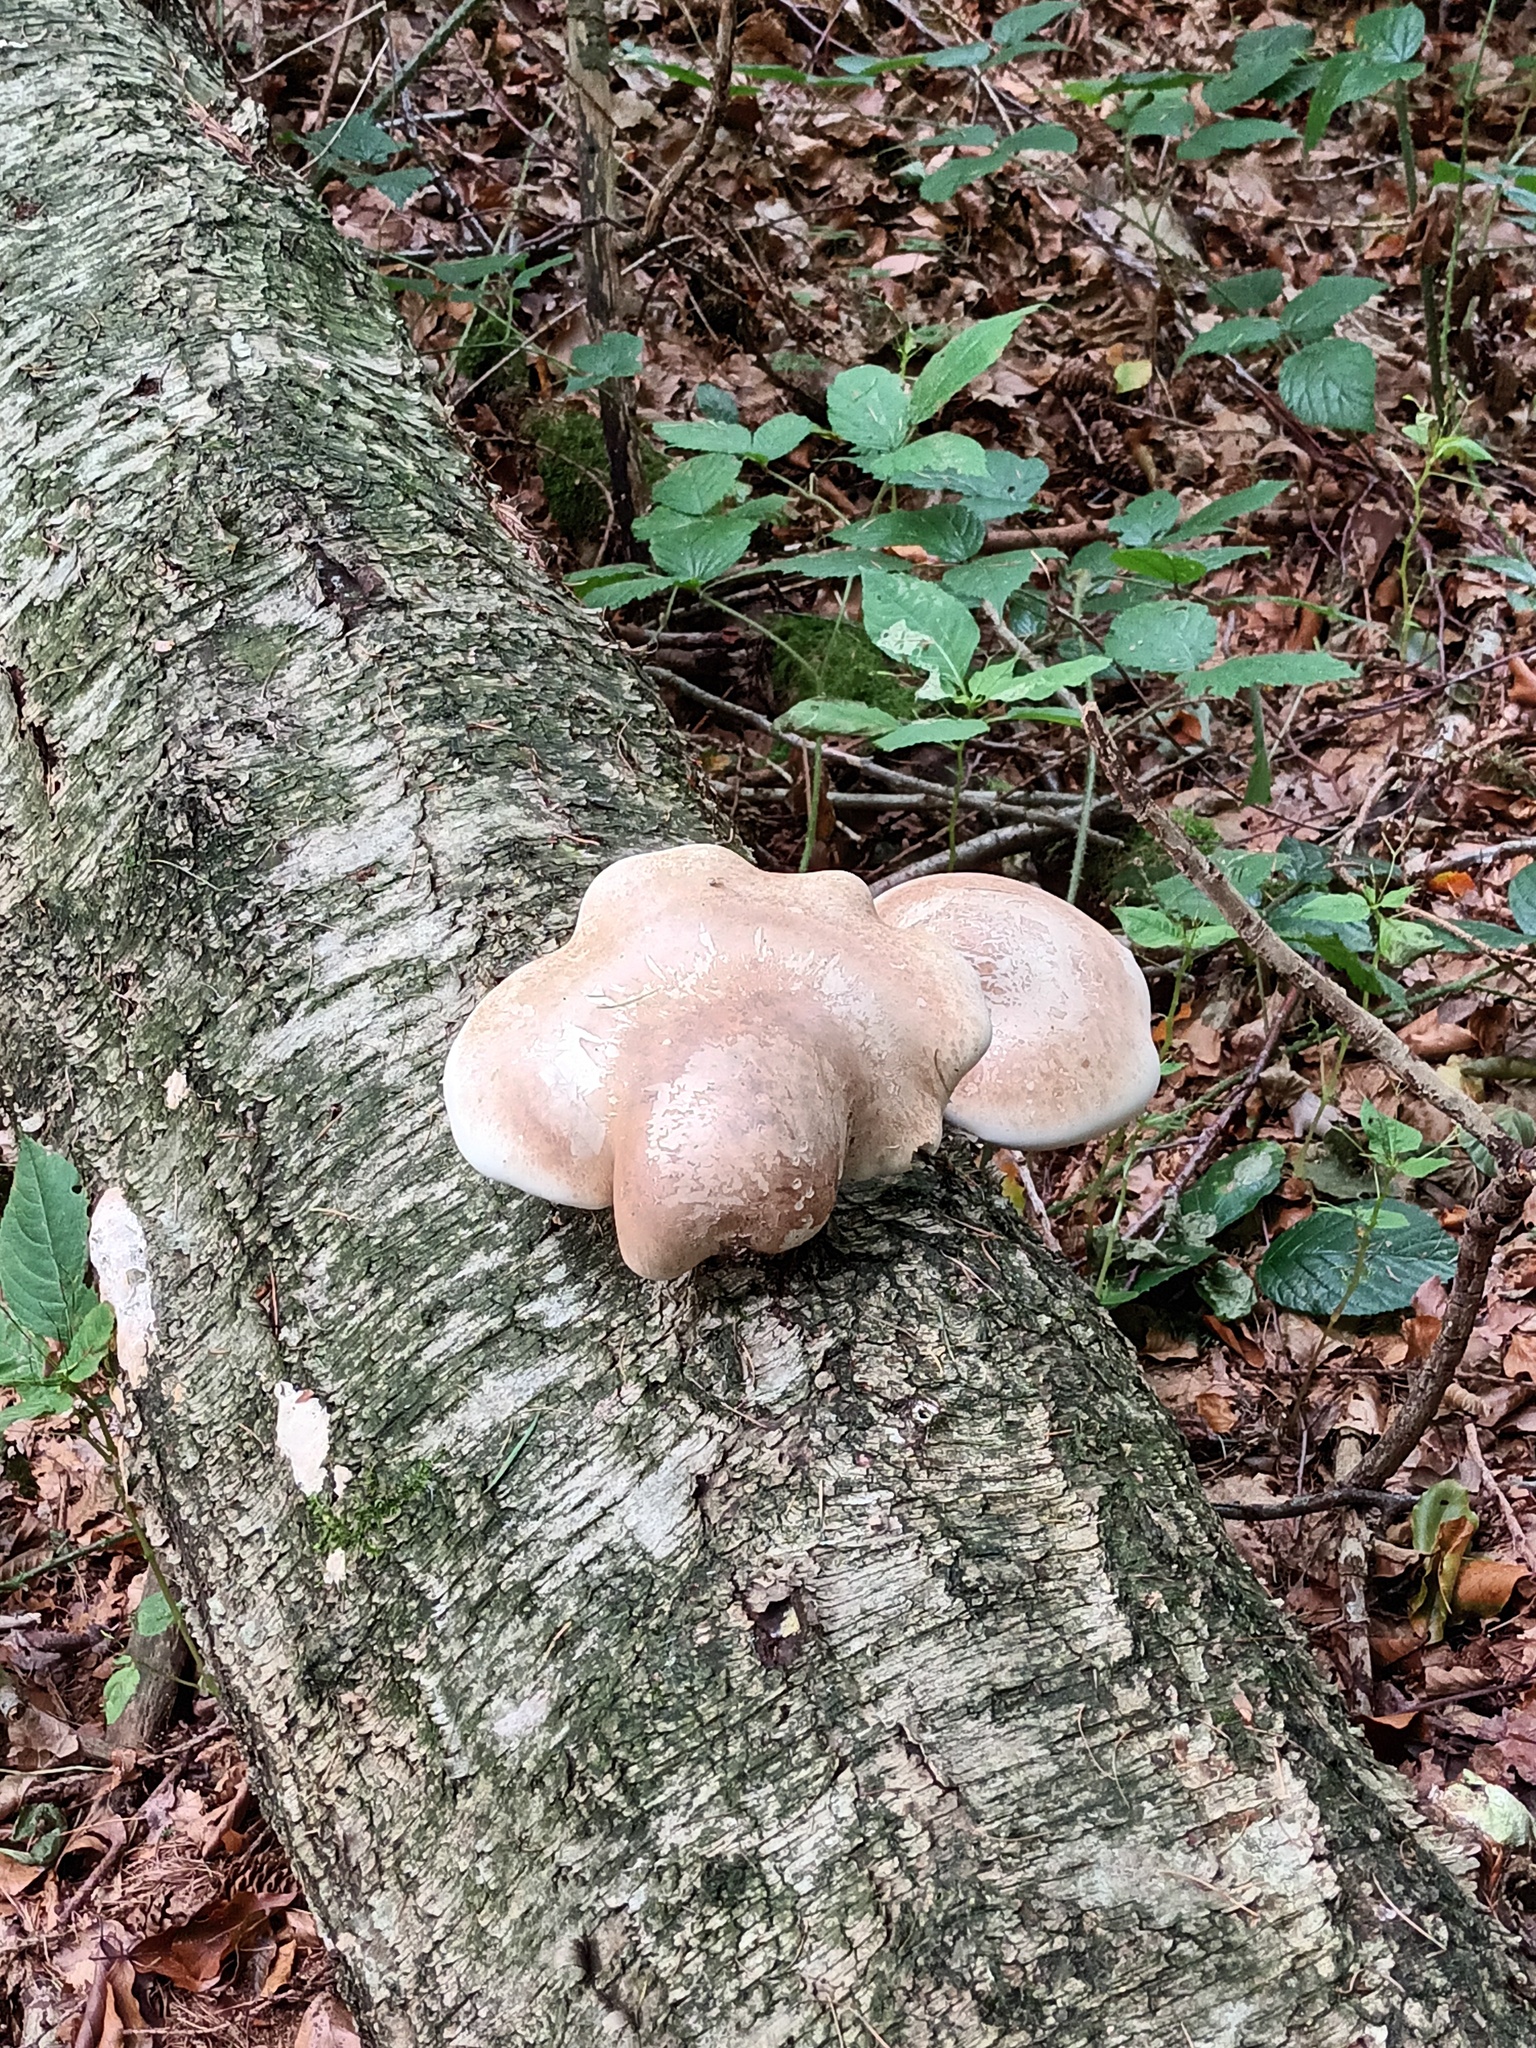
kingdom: Fungi
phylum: Basidiomycota
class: Agaricomycetes
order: Polyporales
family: Fomitopsidaceae
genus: Fomitopsis
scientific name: Fomitopsis betulina
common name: Birch polypore
